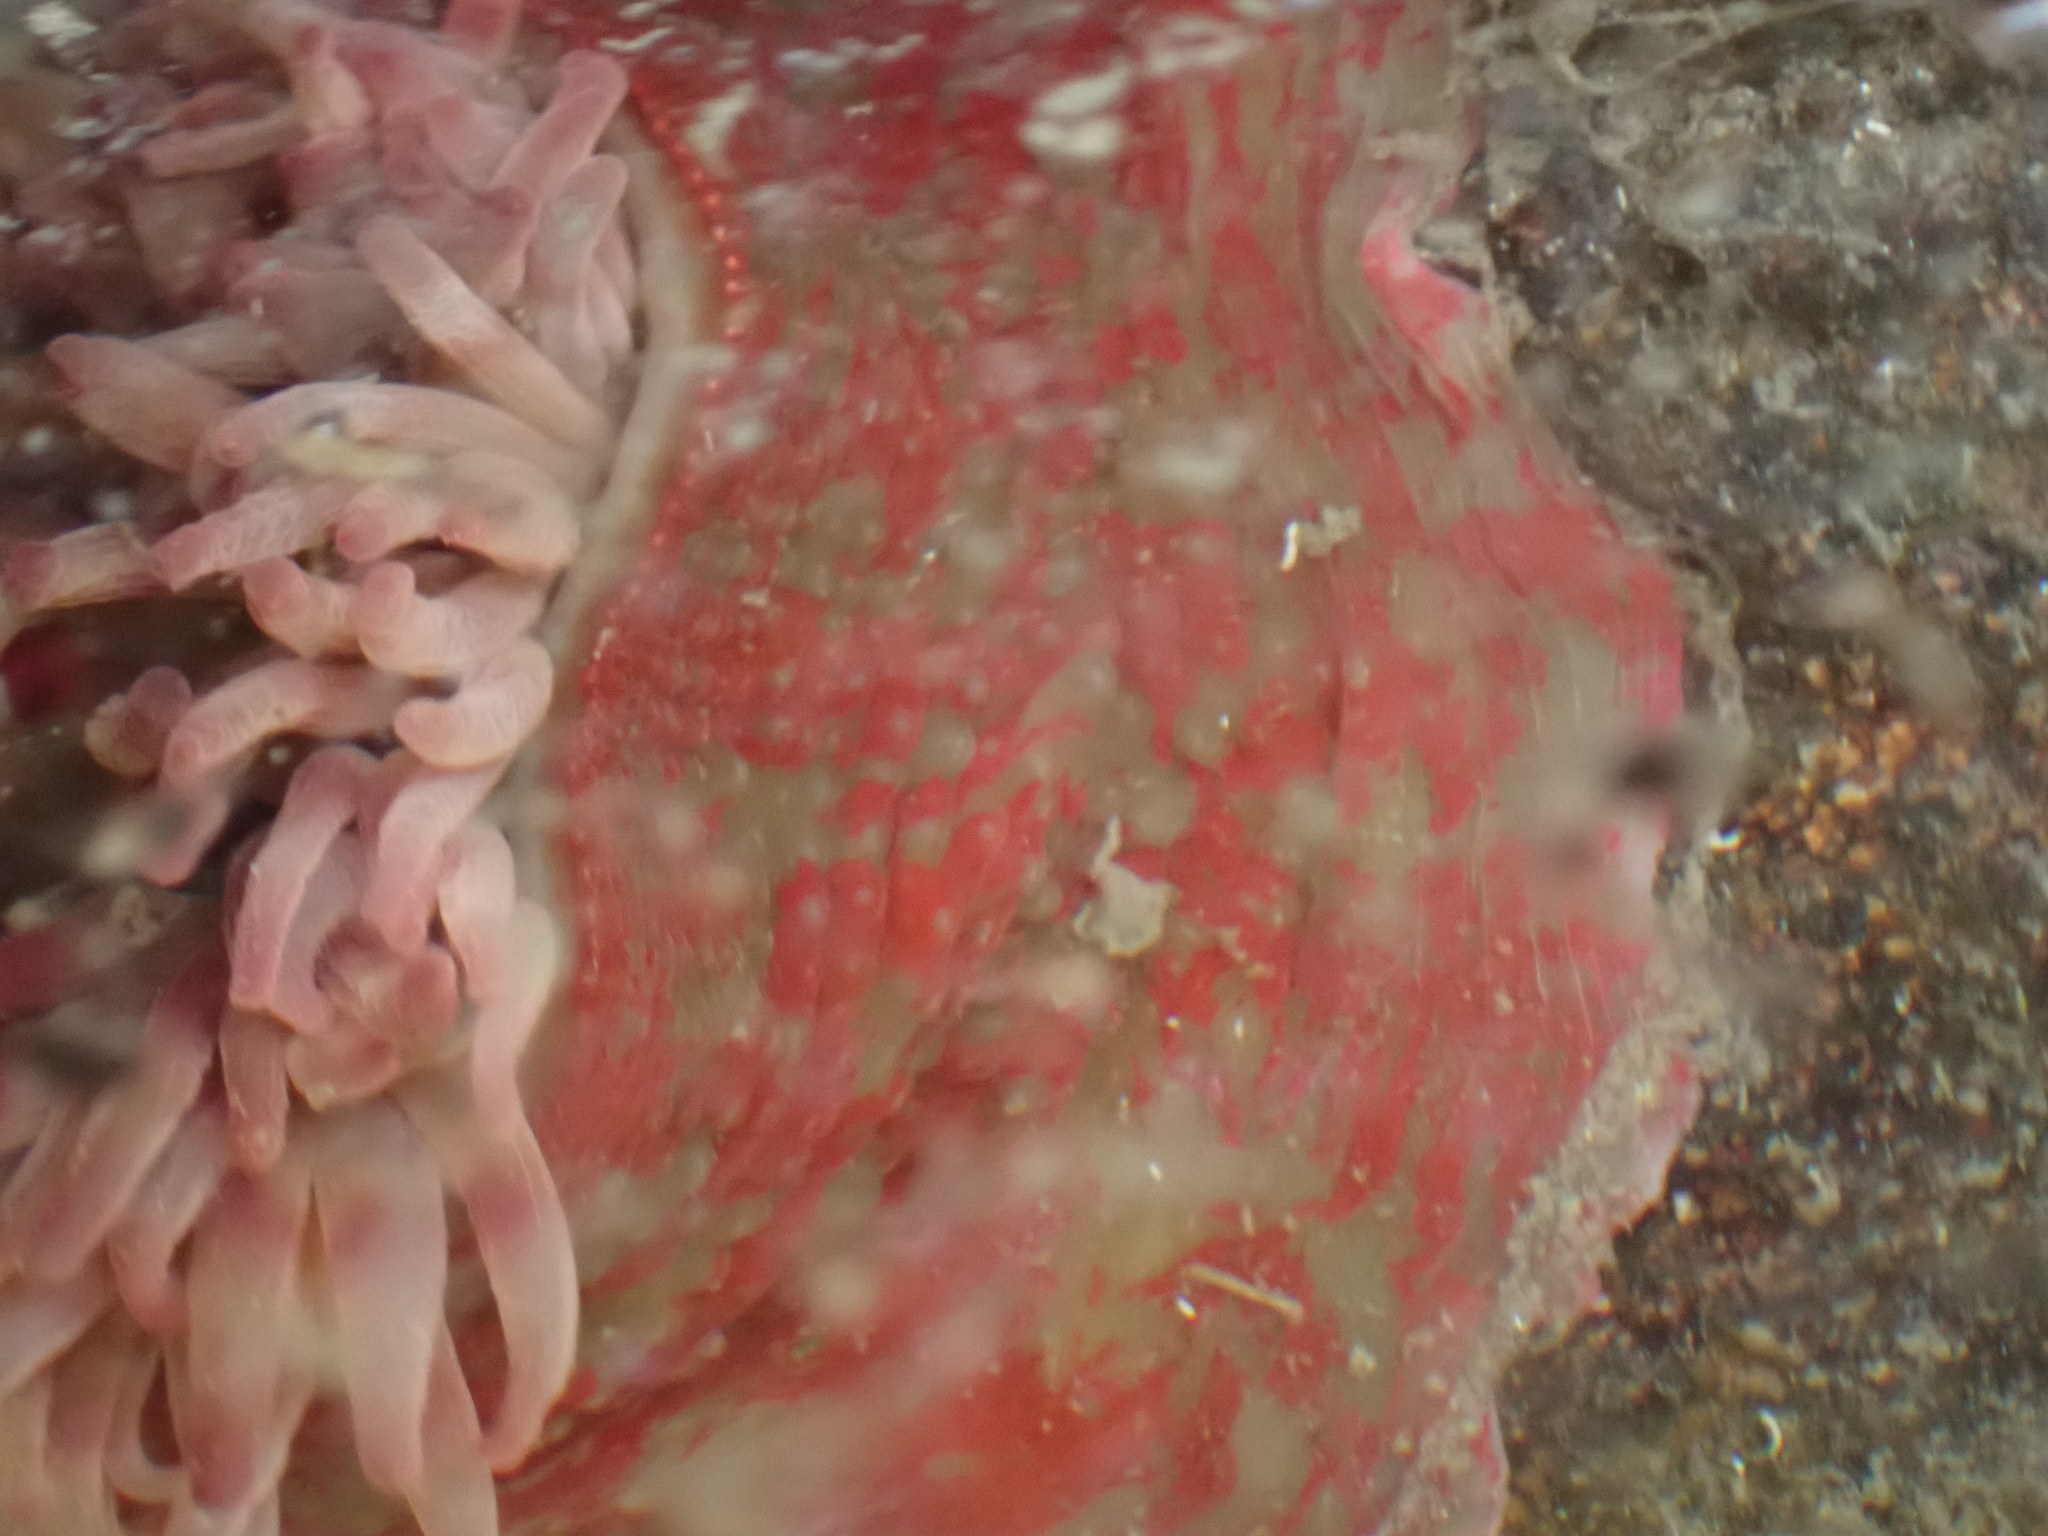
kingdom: Animalia
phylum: Cnidaria
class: Anthozoa
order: Actiniaria
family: Actiniidae
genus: Urticina
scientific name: Urticina grebelnyi
